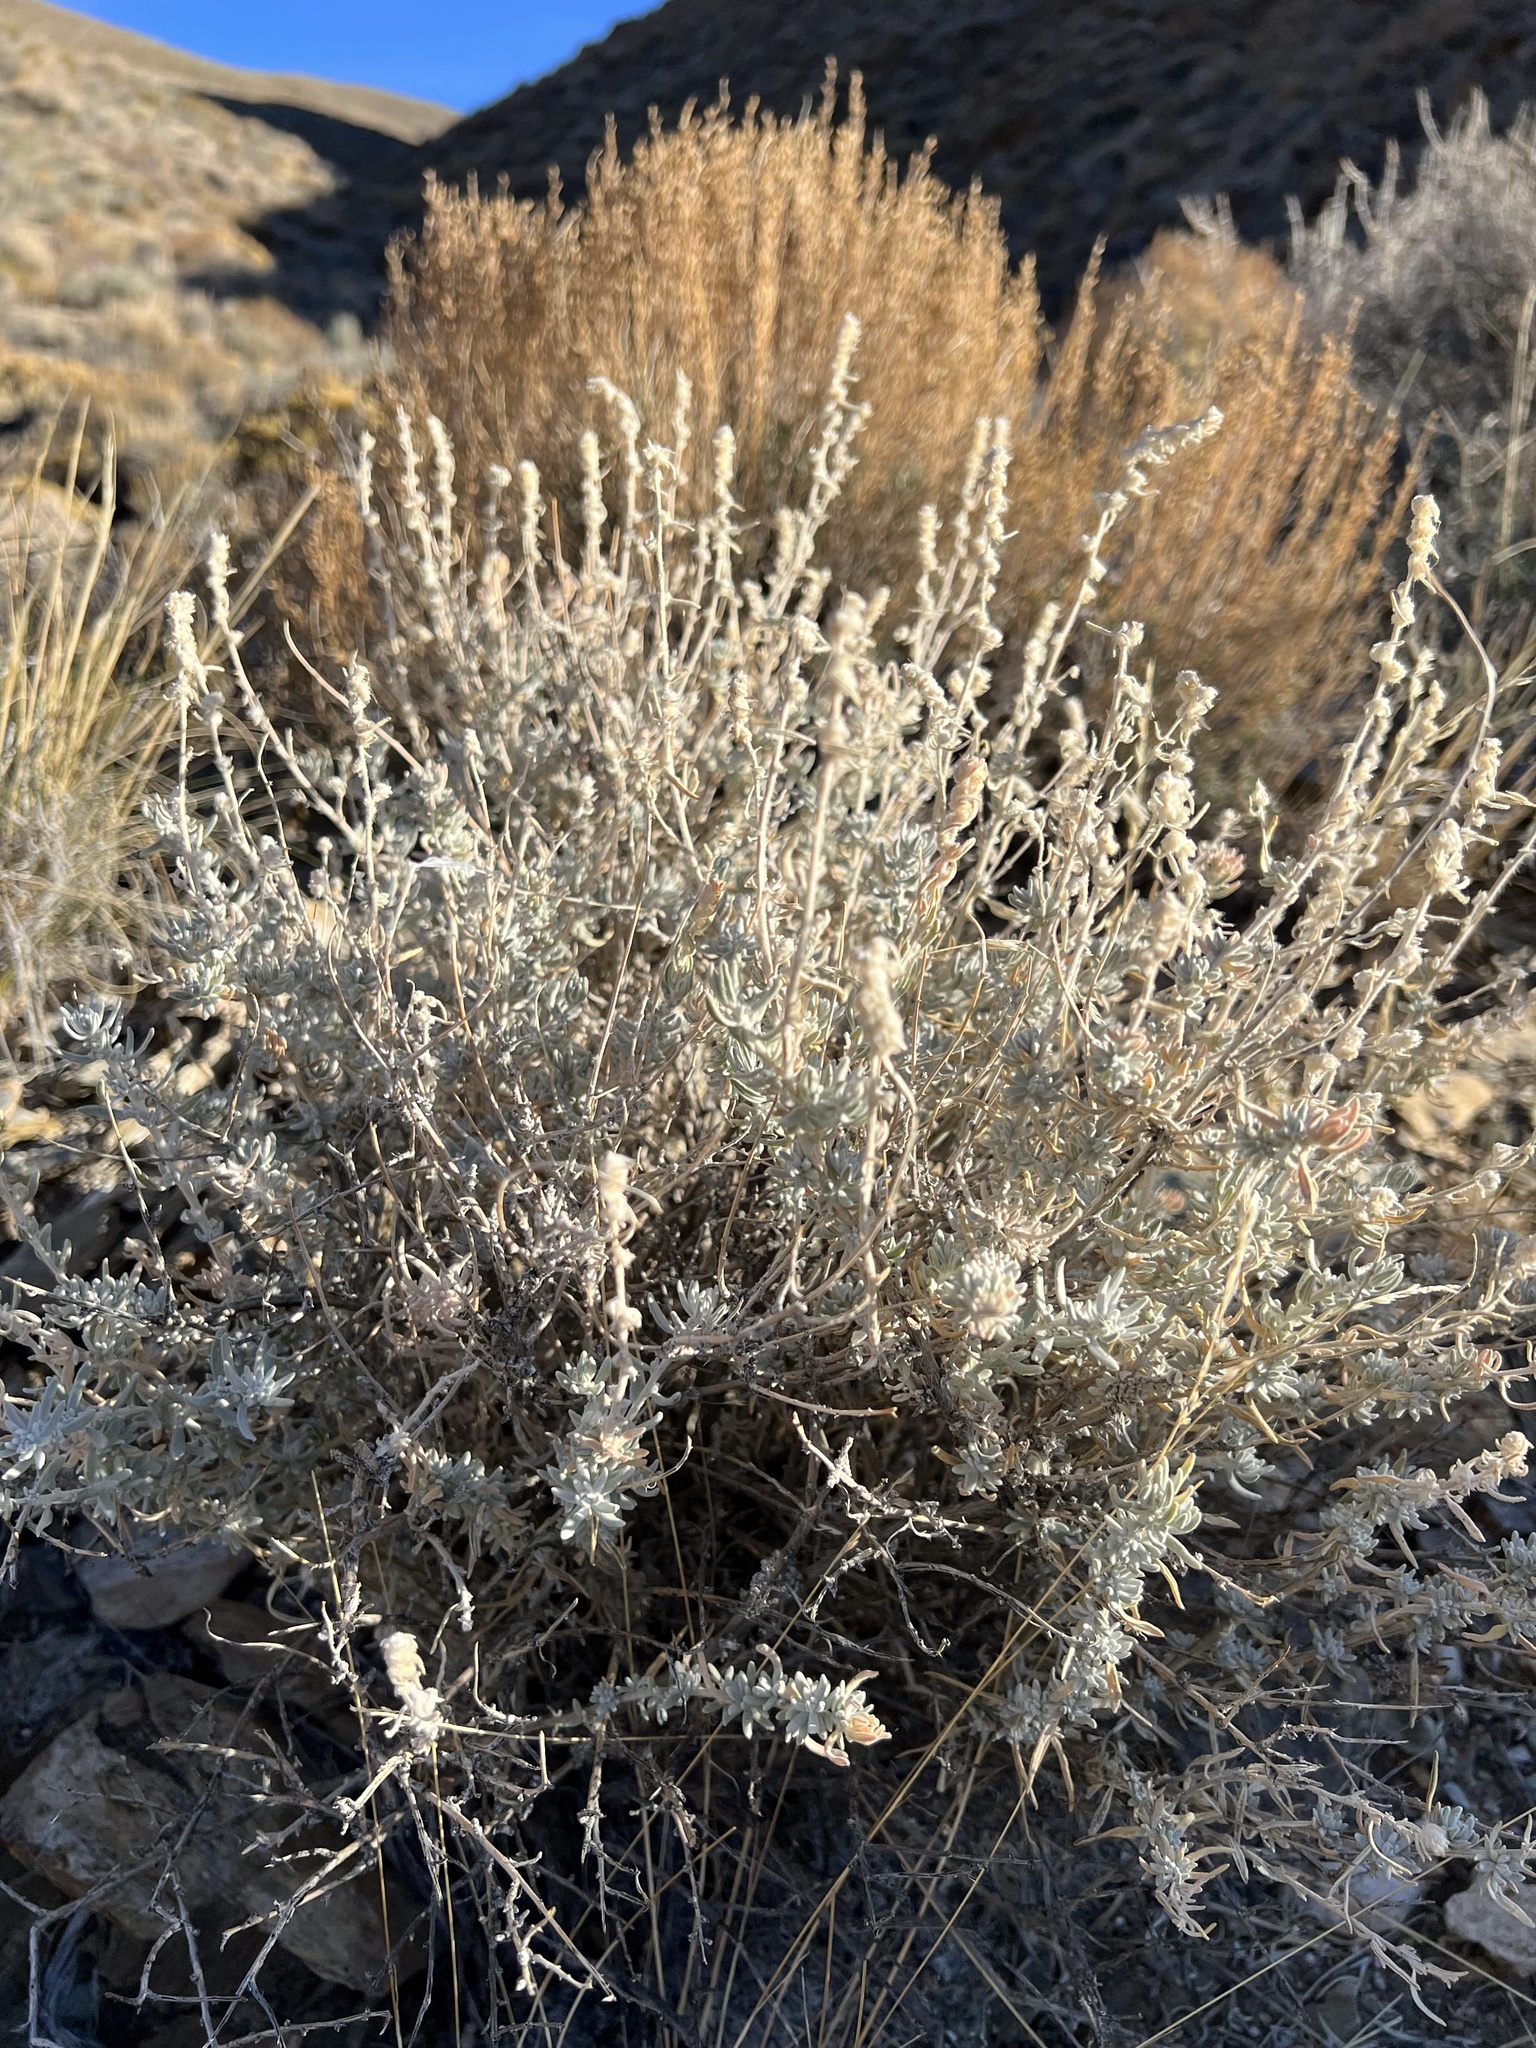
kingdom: Plantae
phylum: Tracheophyta
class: Magnoliopsida
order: Caryophyllales
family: Amaranthaceae
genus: Krascheninnikovia
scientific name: Krascheninnikovia lanata
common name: Winterfat
